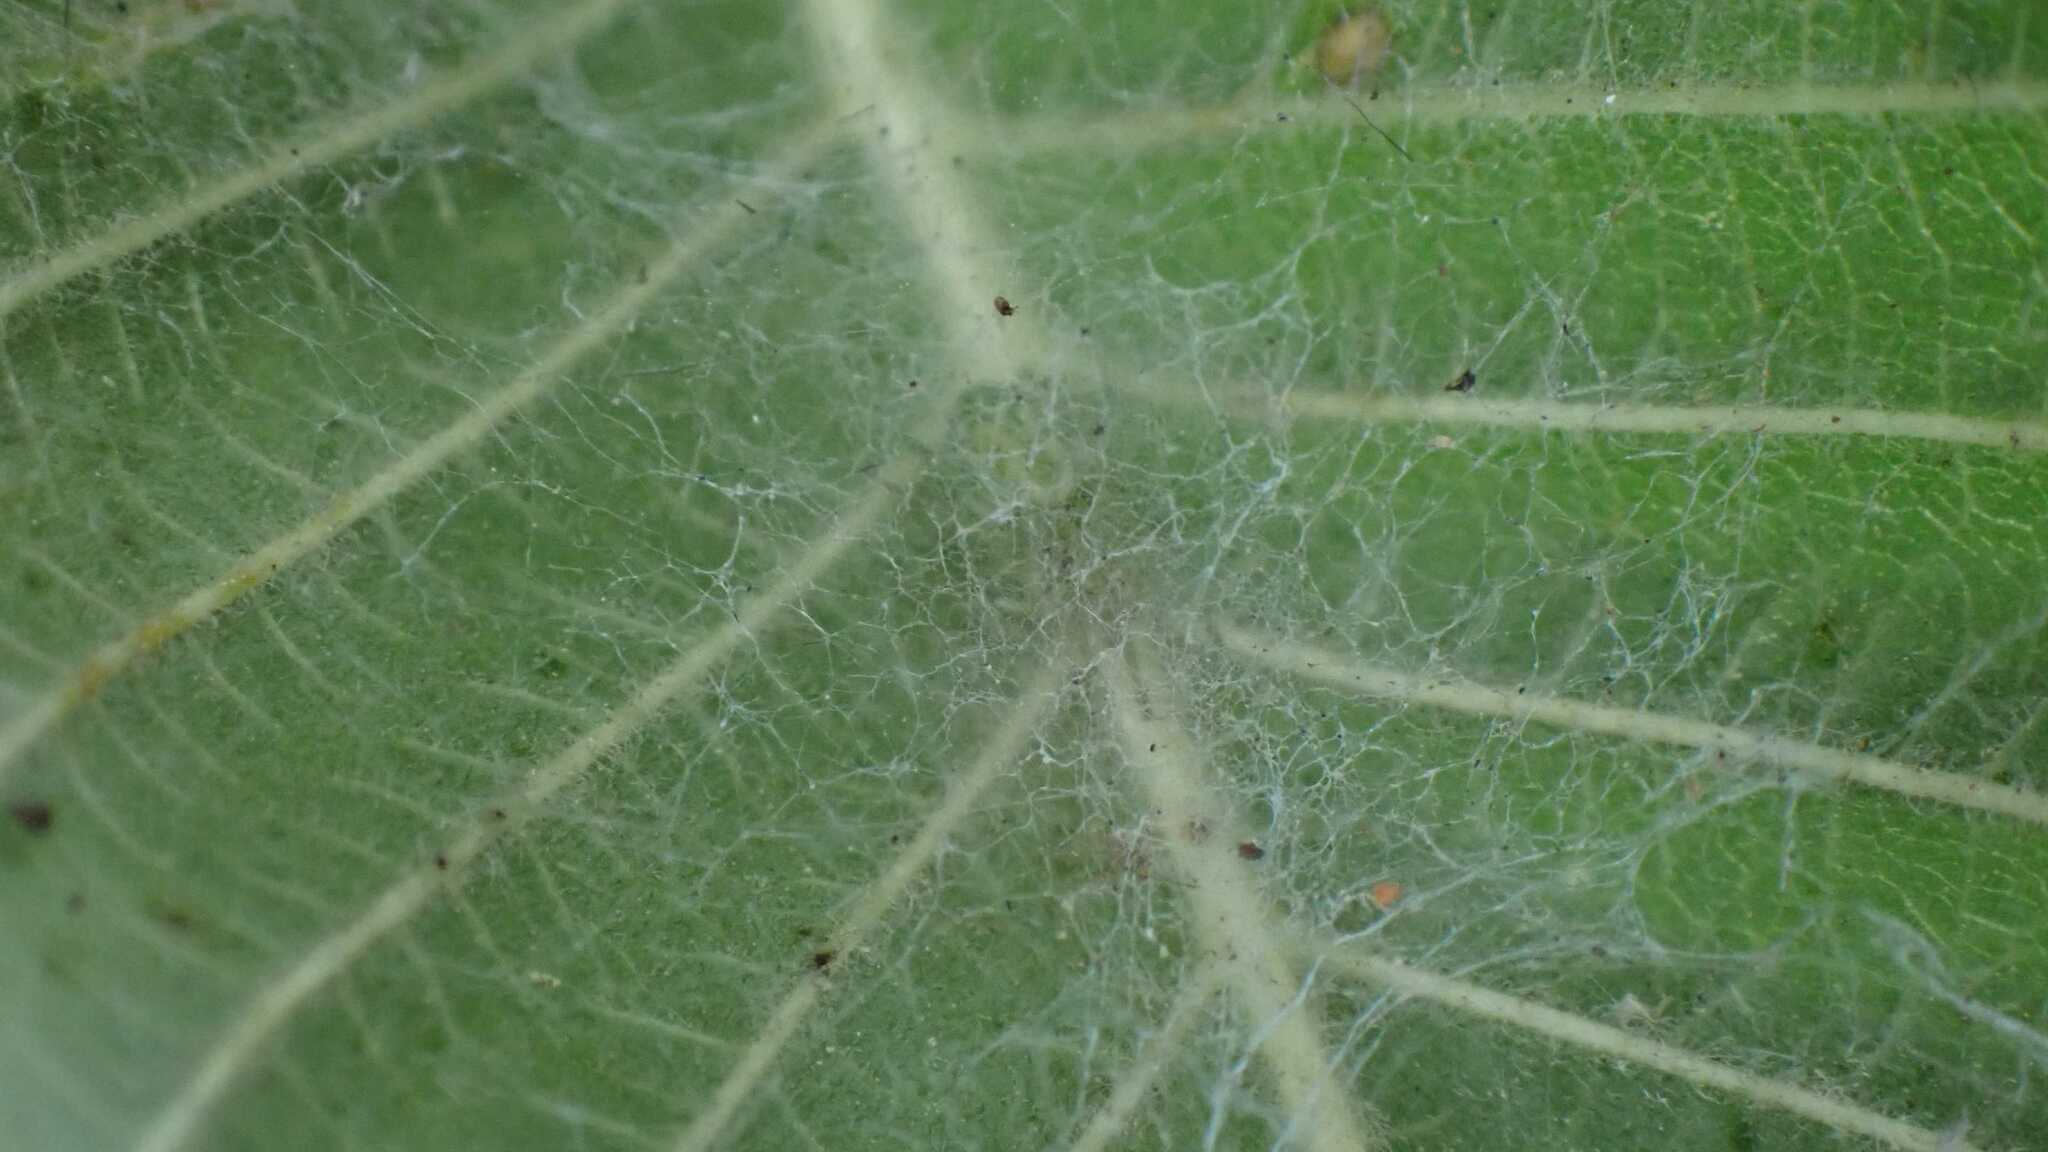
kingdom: Animalia
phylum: Arthropoda
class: Arachnida
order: Araneae
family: Dictynidae
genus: Nigma
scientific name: Nigma walckenaeri
